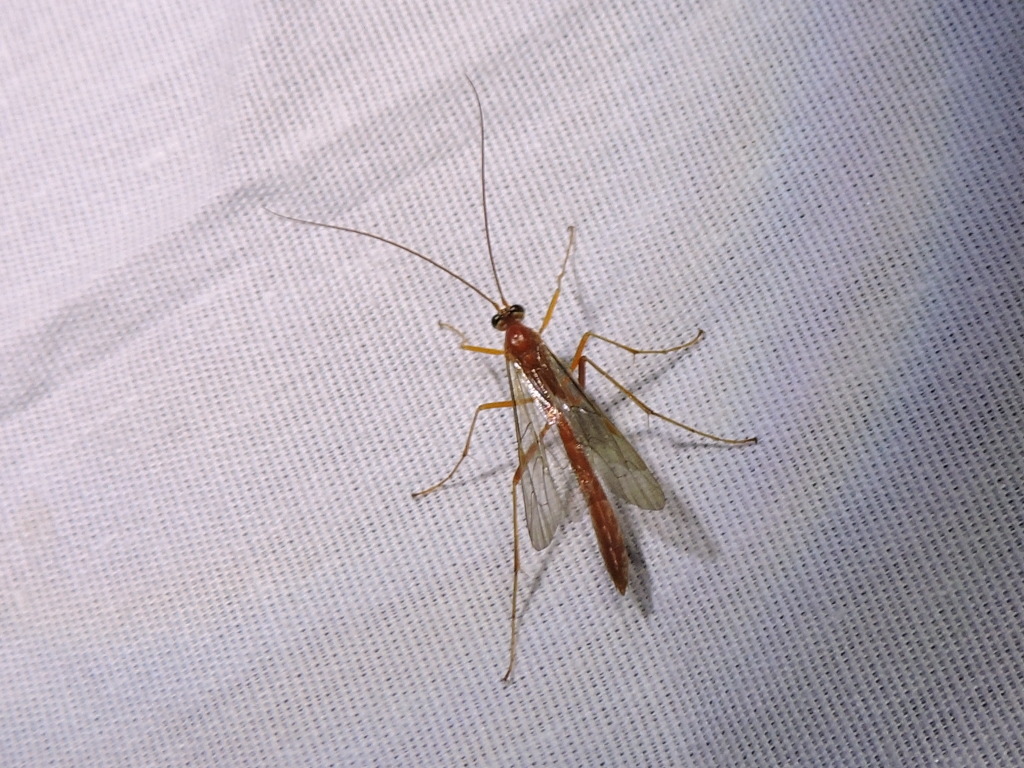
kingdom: Animalia
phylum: Arthropoda
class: Insecta
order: Hymenoptera
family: Ichneumonidae
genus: Netelia
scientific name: Netelia
